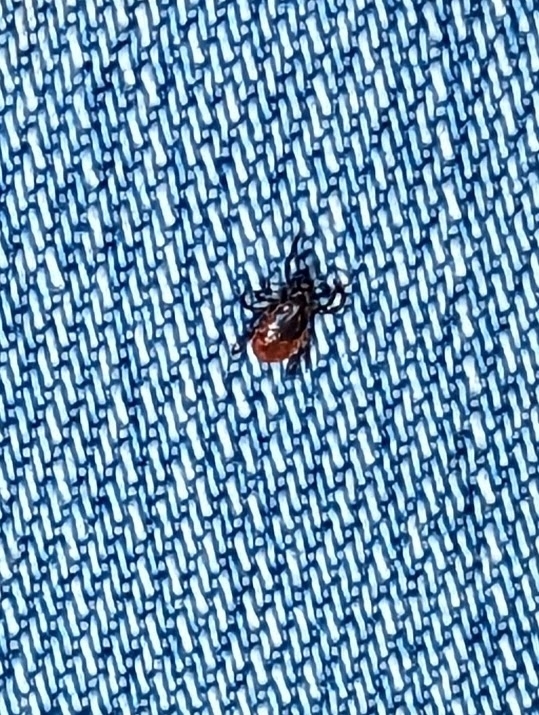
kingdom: Animalia
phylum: Arthropoda
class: Arachnida
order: Ixodida
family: Ixodidae
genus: Ixodes
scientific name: Ixodes scapularis
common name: Black legged tick
